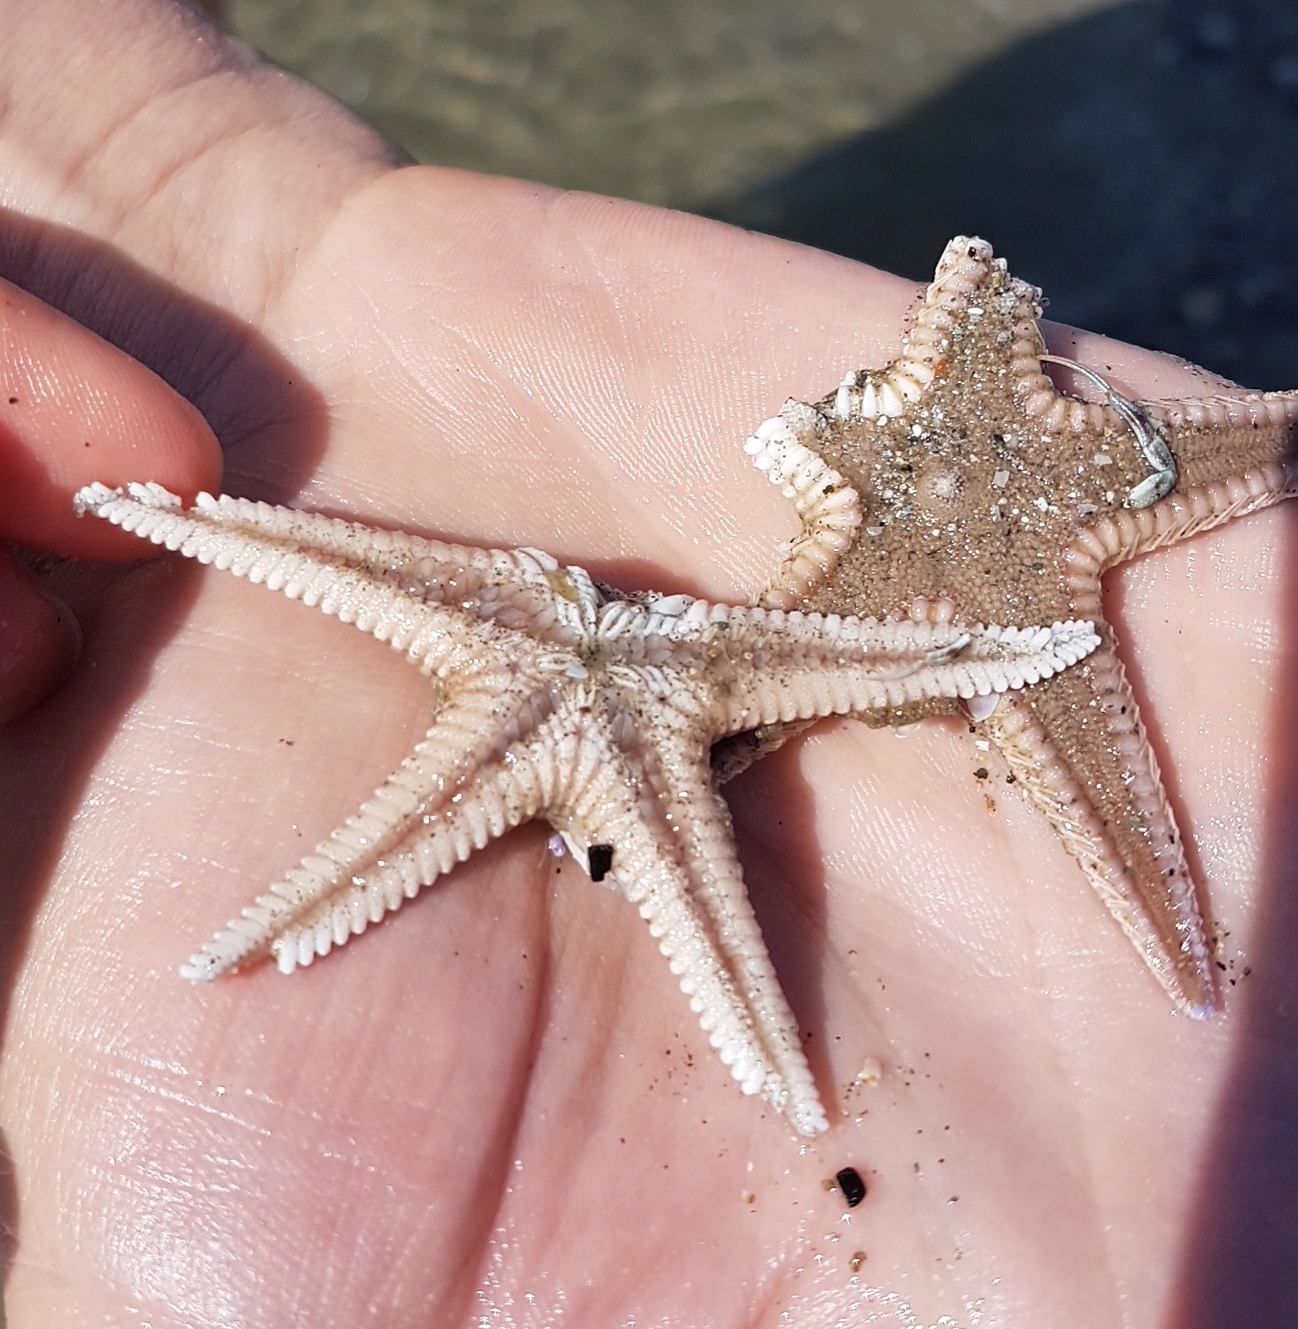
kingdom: Animalia
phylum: Echinodermata
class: Asteroidea
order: Paxillosida
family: Astropectinidae
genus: Astropecten
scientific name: Astropecten irregularis
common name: Sand star
